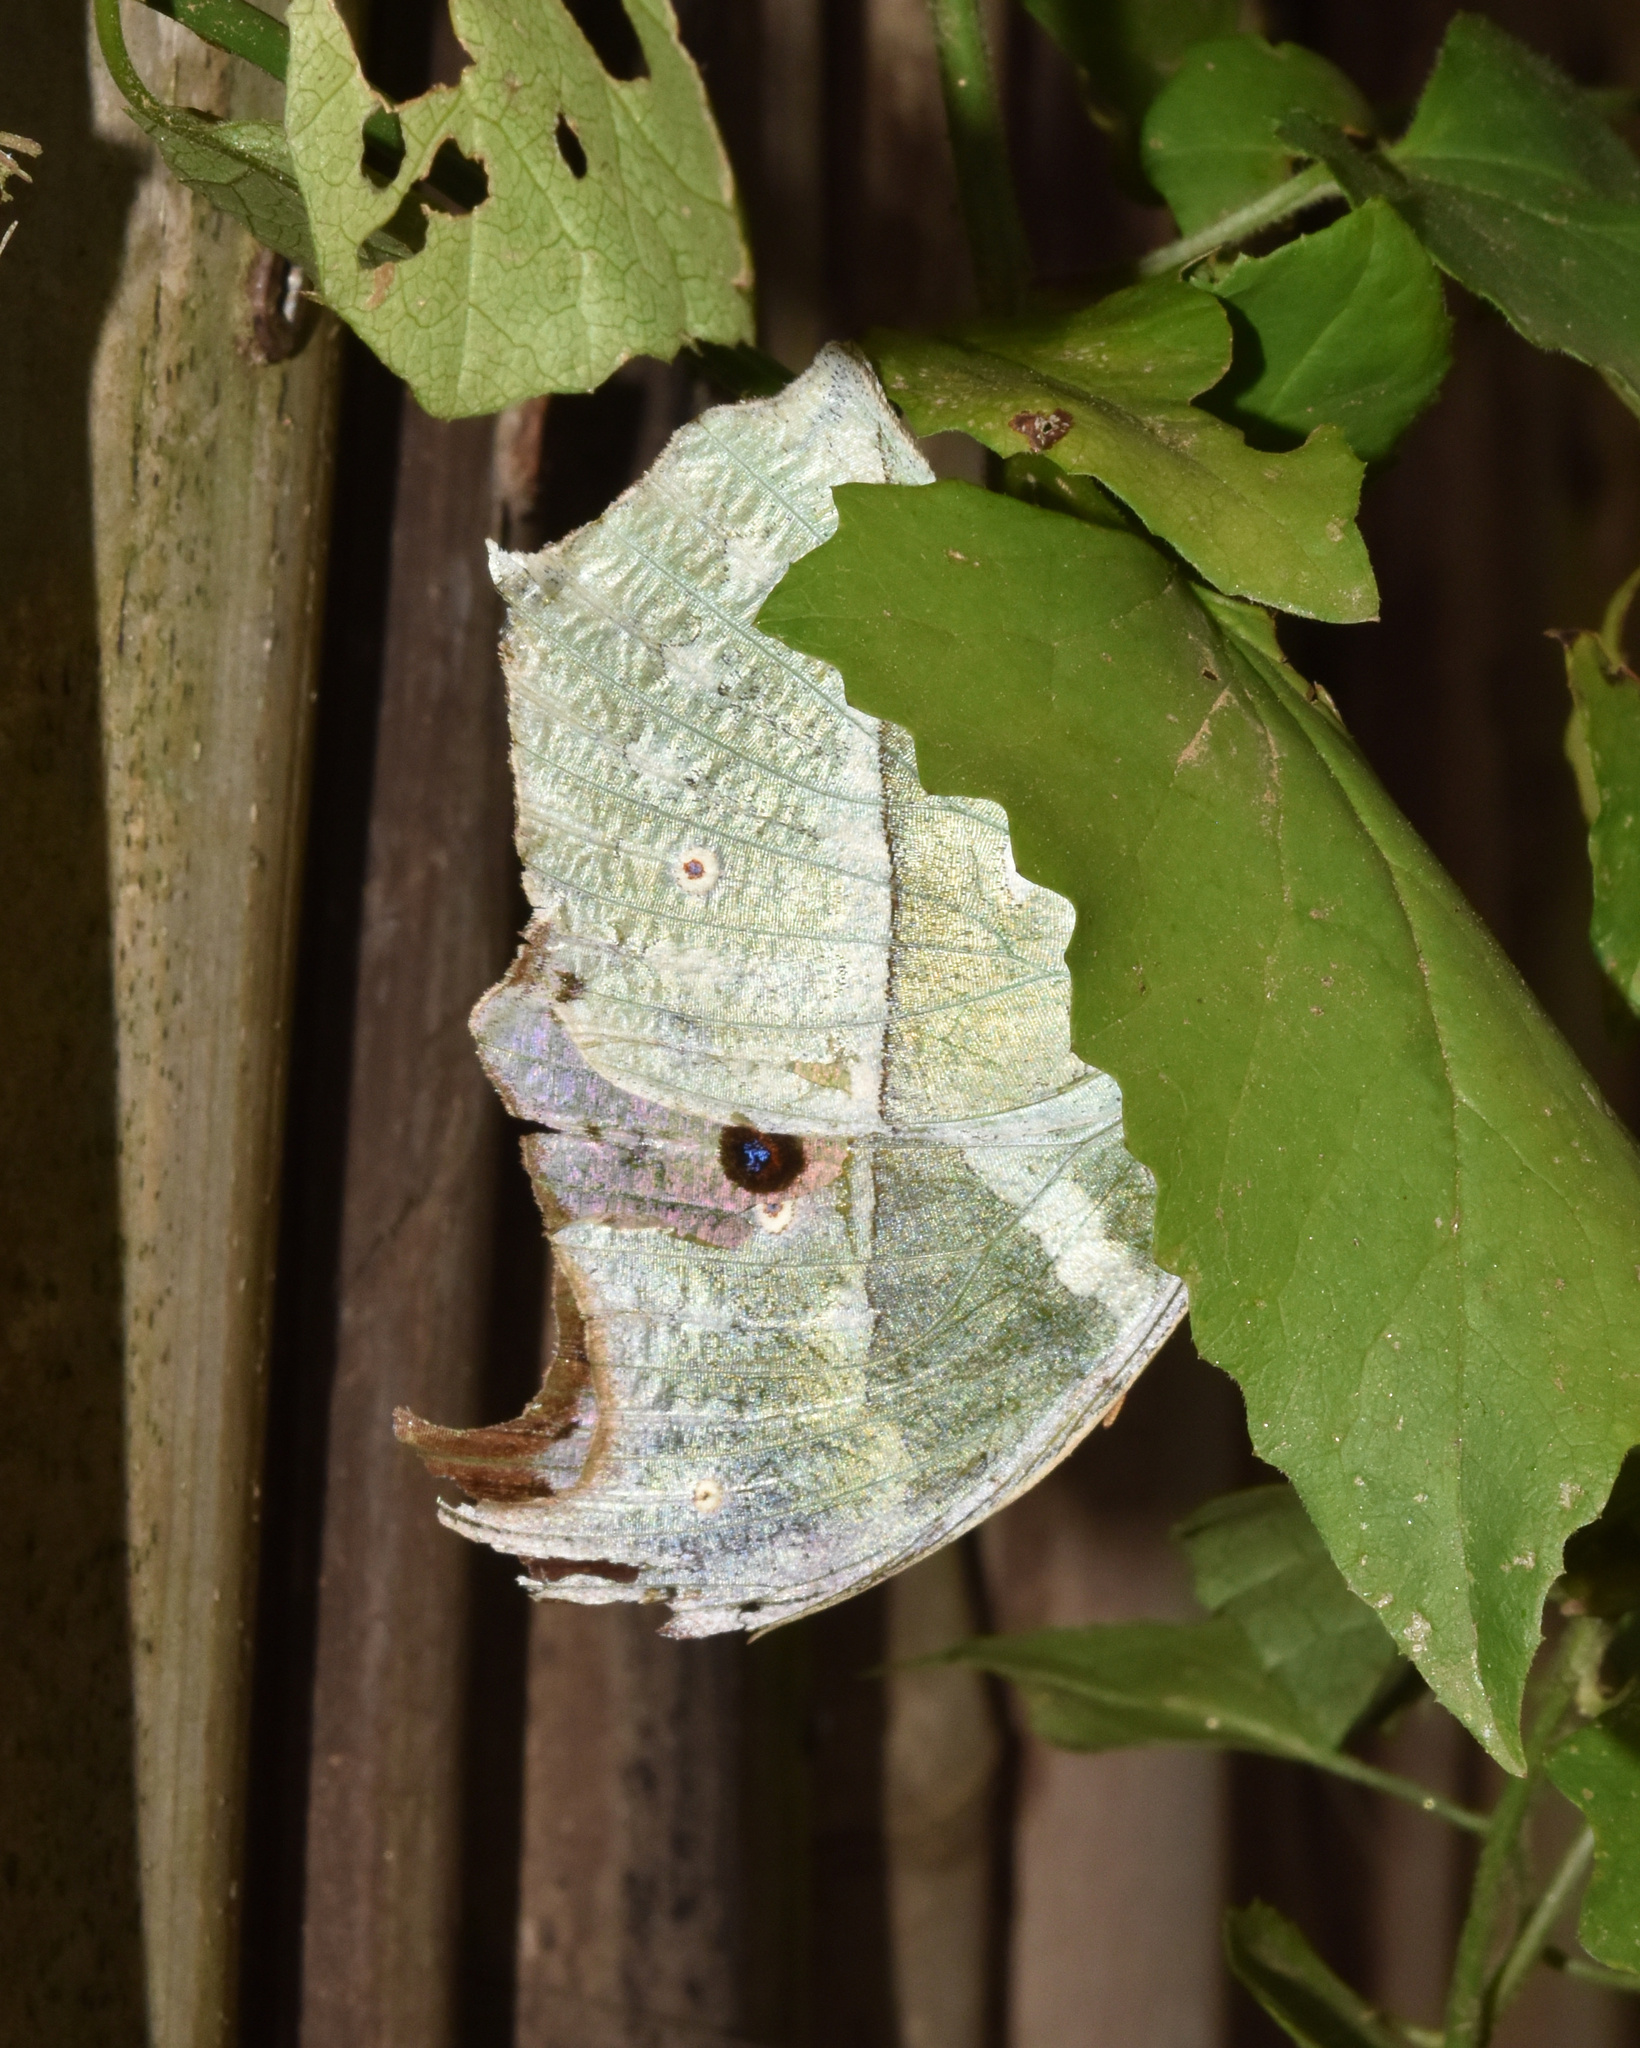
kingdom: Animalia
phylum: Arthropoda
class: Insecta
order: Lepidoptera
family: Nymphalidae
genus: Salamis
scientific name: Salamis Protogoniomorpha parhassus
